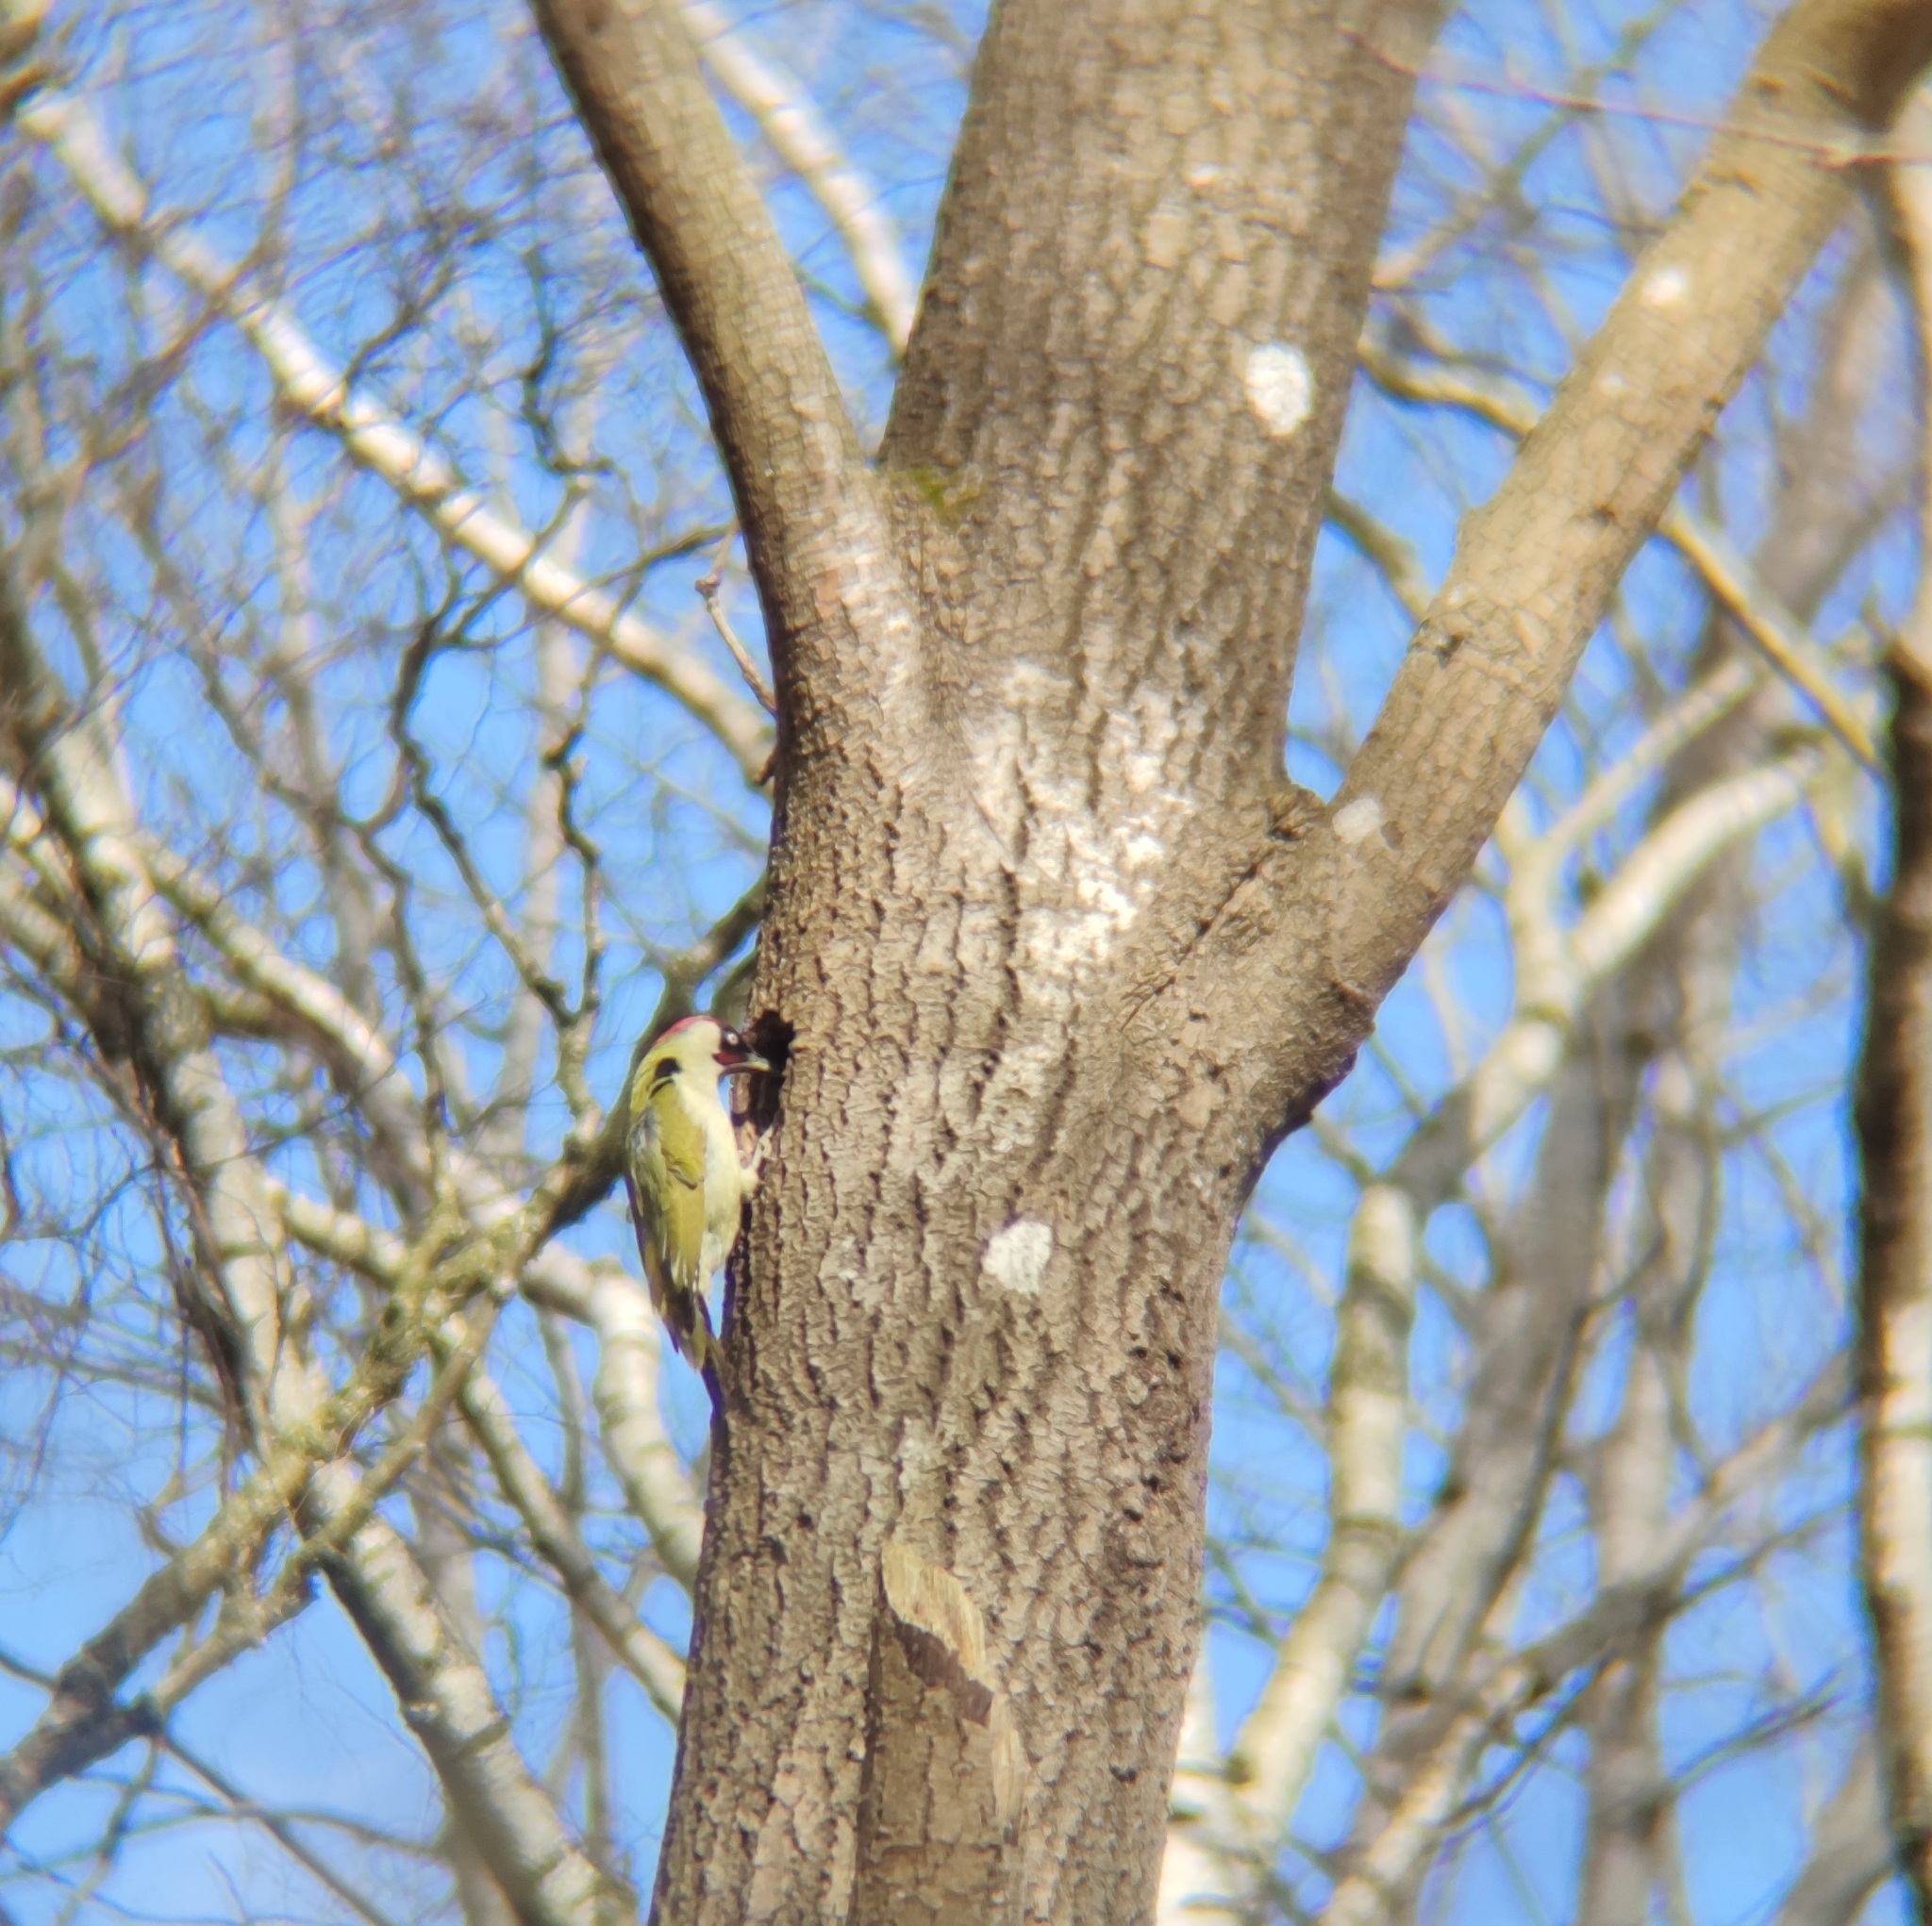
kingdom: Animalia
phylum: Chordata
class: Aves
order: Piciformes
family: Picidae
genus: Picus
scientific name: Picus viridis
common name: European green woodpecker
